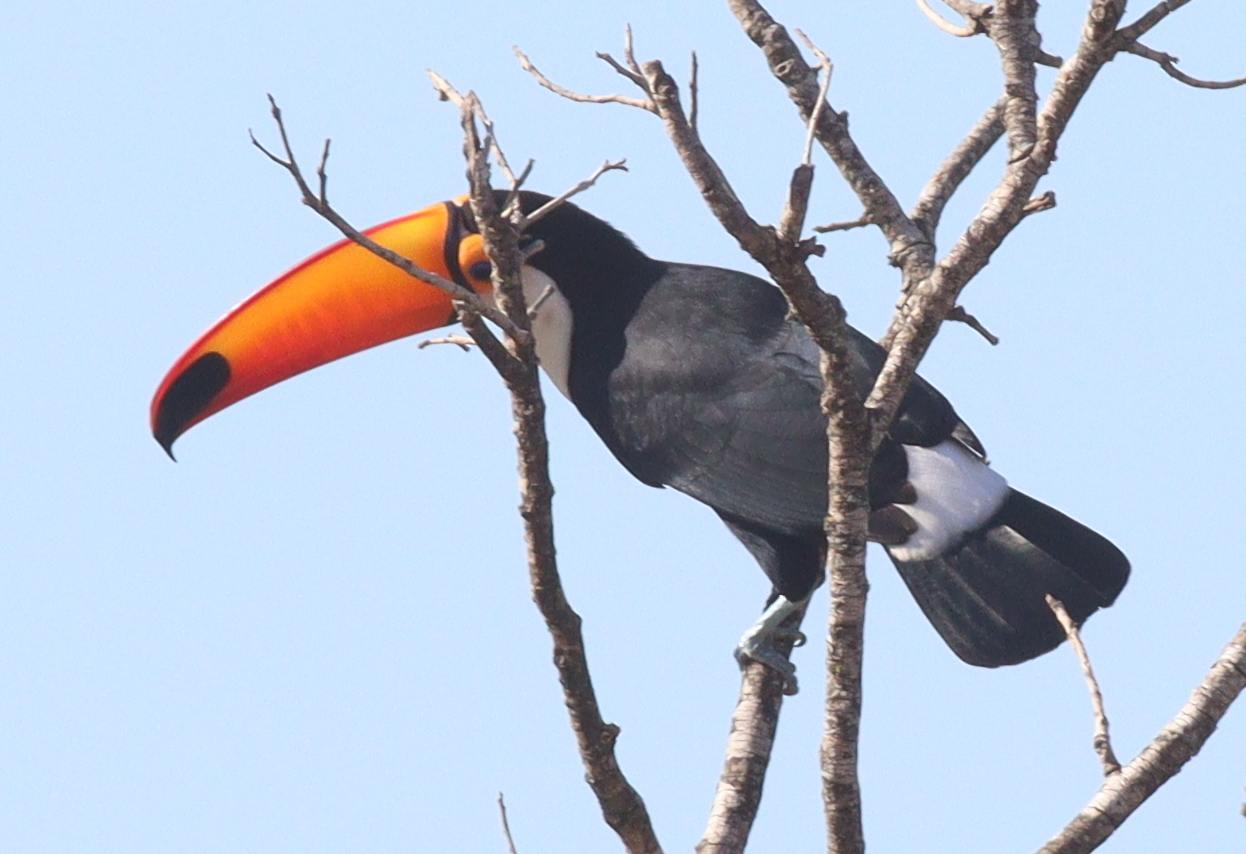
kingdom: Animalia
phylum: Chordata
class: Aves
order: Piciformes
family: Ramphastidae
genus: Ramphastos
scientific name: Ramphastos toco
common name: Toco toucan
